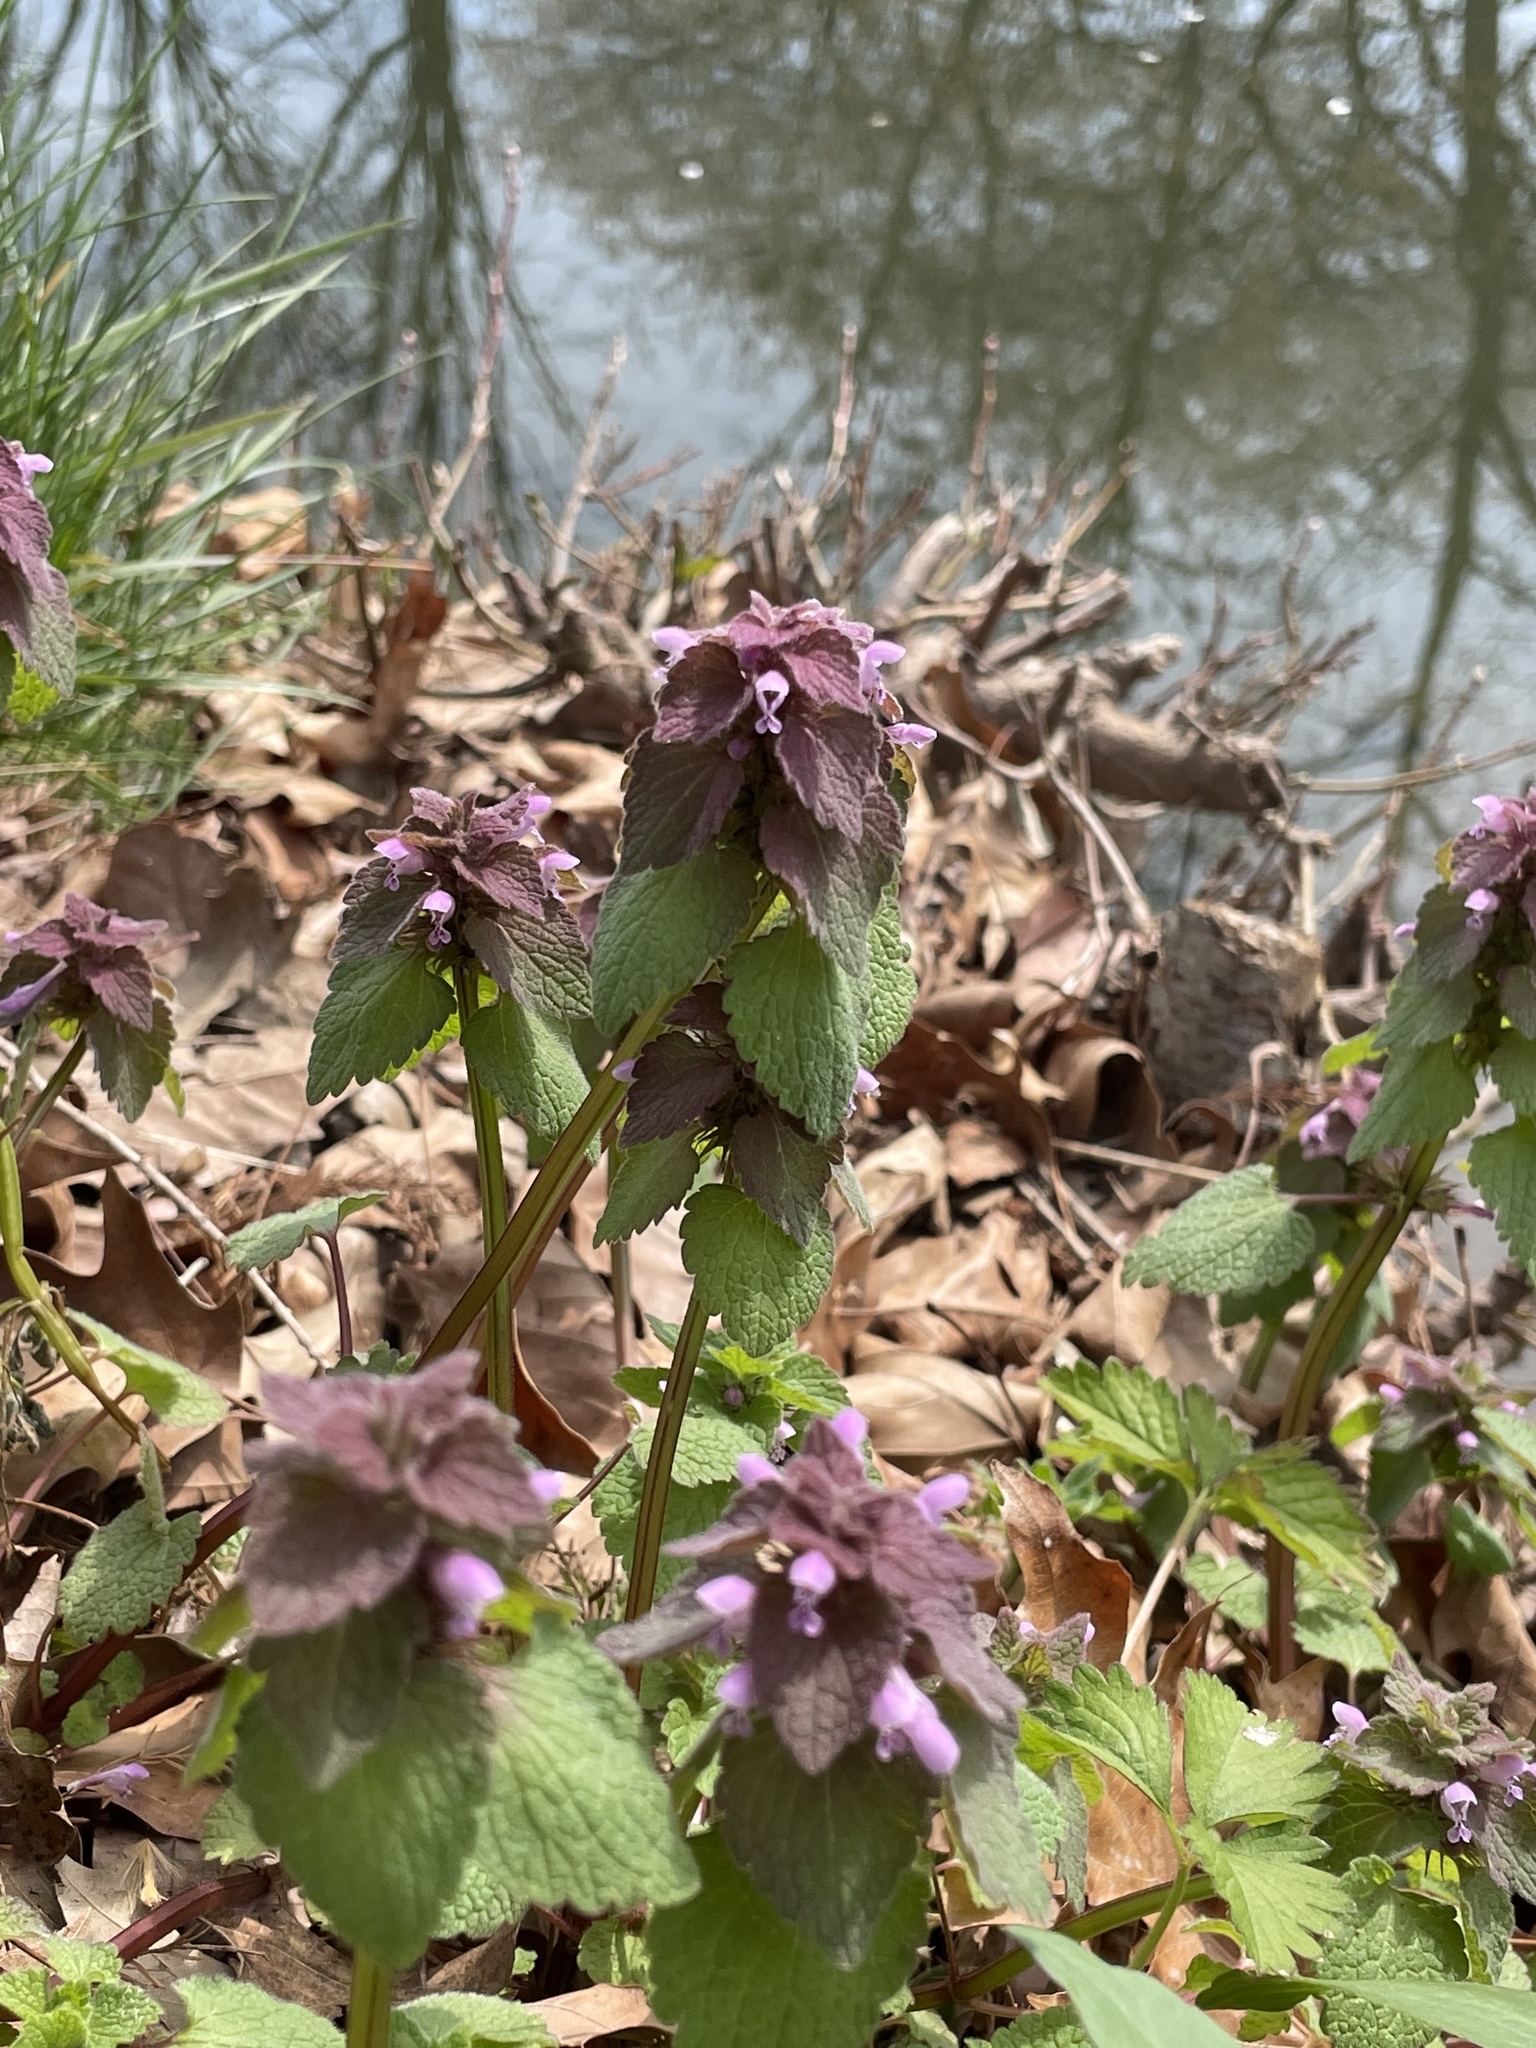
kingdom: Plantae
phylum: Tracheophyta
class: Magnoliopsida
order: Lamiales
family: Lamiaceae
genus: Lamium
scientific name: Lamium purpureum
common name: Red dead-nettle
